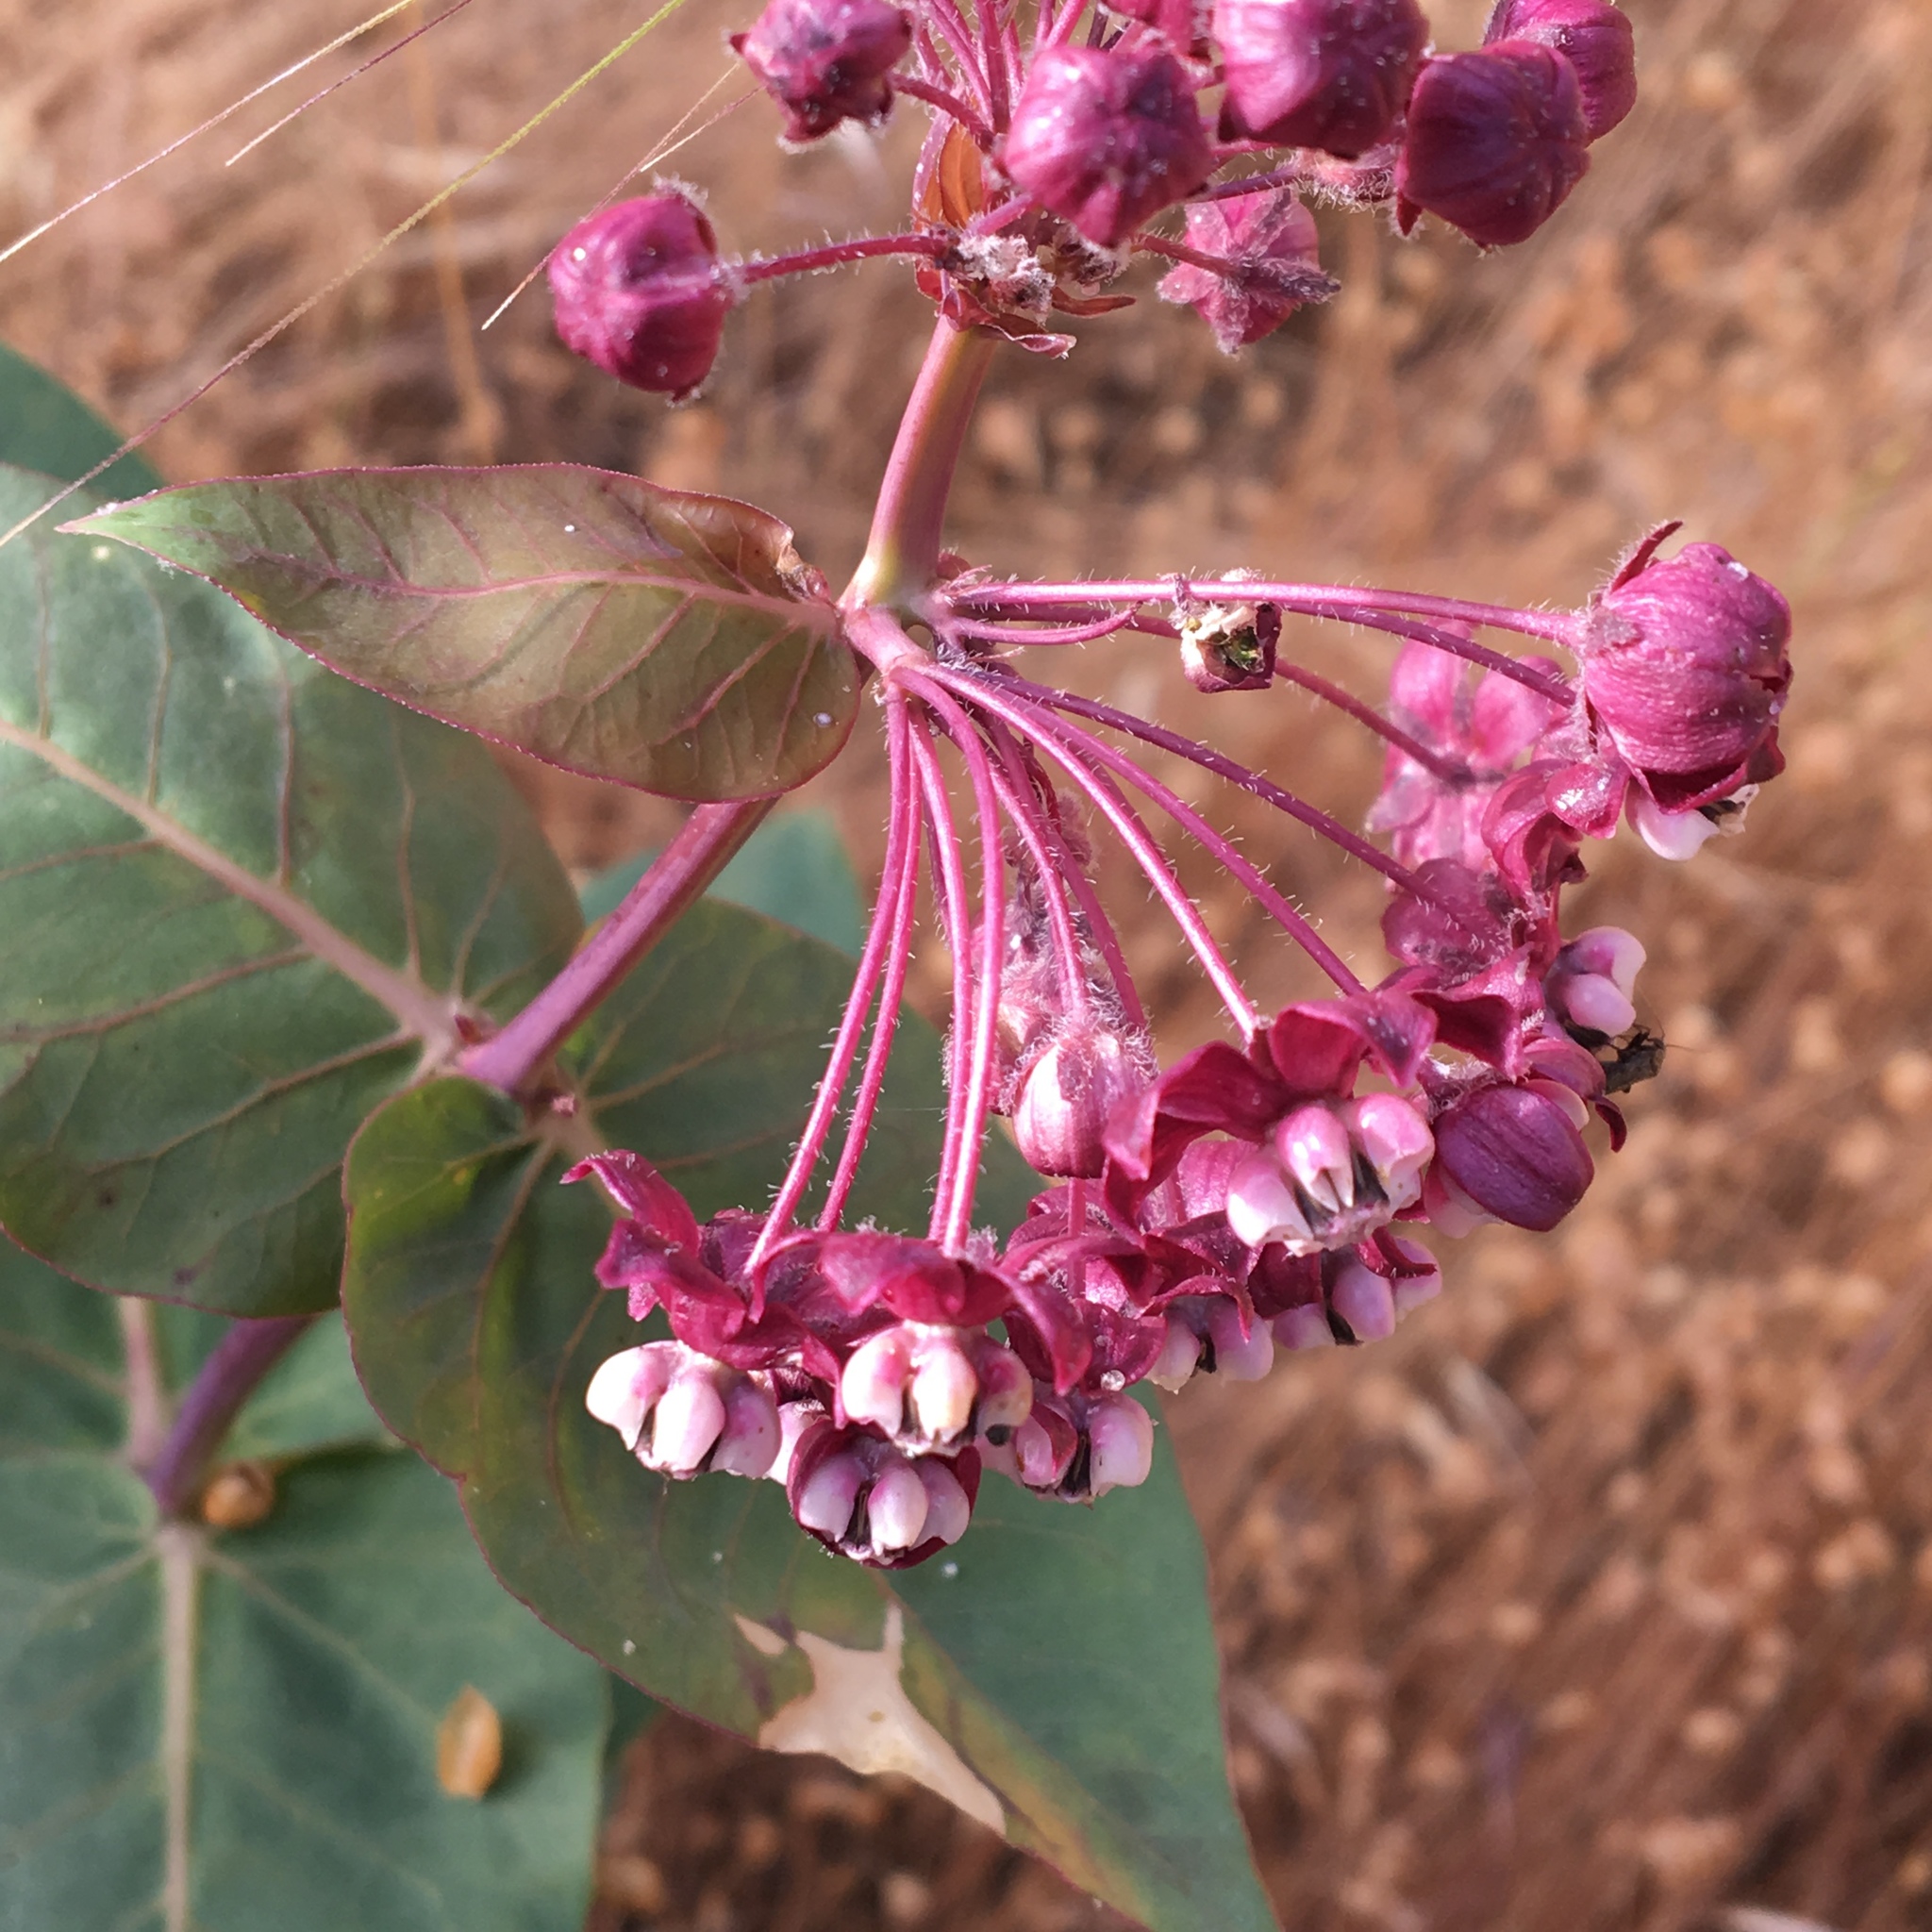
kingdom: Plantae
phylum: Tracheophyta
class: Magnoliopsida
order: Gentianales
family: Apocynaceae
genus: Asclepias
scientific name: Asclepias cordifolia
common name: Purple milkweed
